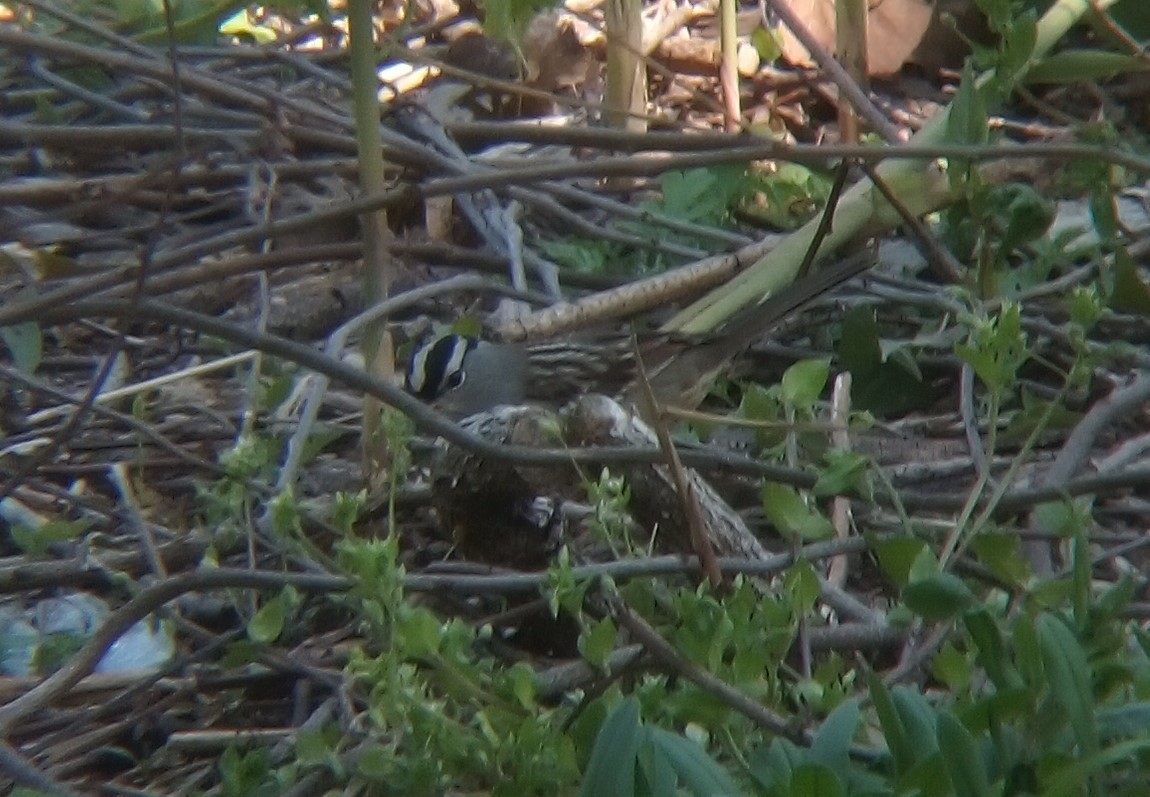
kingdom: Animalia
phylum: Chordata
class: Aves
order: Passeriformes
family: Passerellidae
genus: Zonotrichia
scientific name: Zonotrichia leucophrys
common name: White-crowned sparrow
